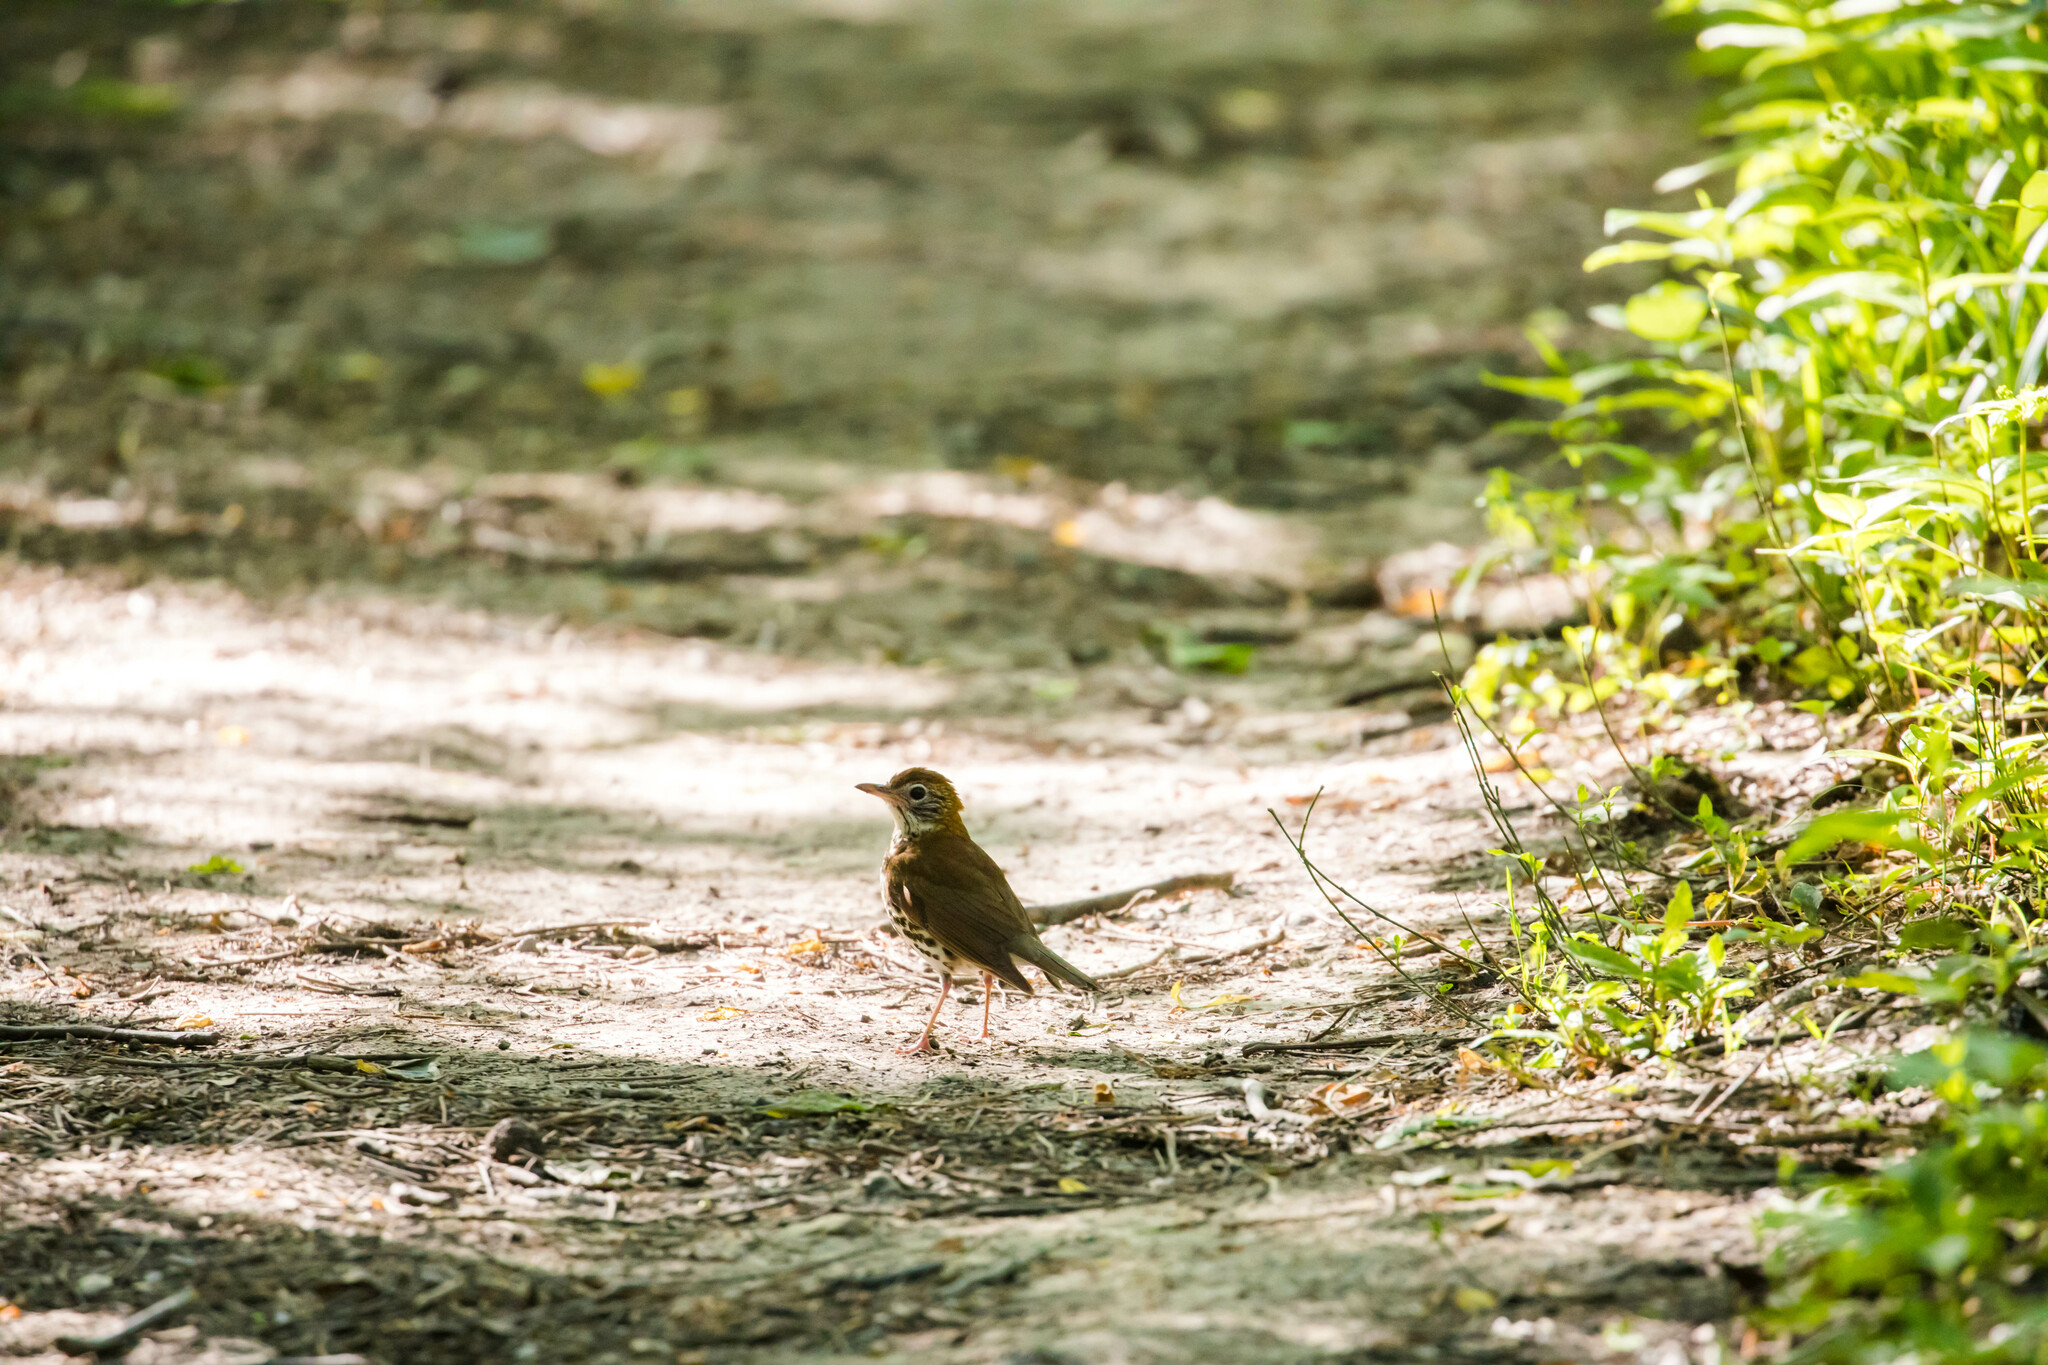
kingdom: Animalia
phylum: Chordata
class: Aves
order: Passeriformes
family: Turdidae
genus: Hylocichla
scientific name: Hylocichla mustelina
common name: Wood thrush
